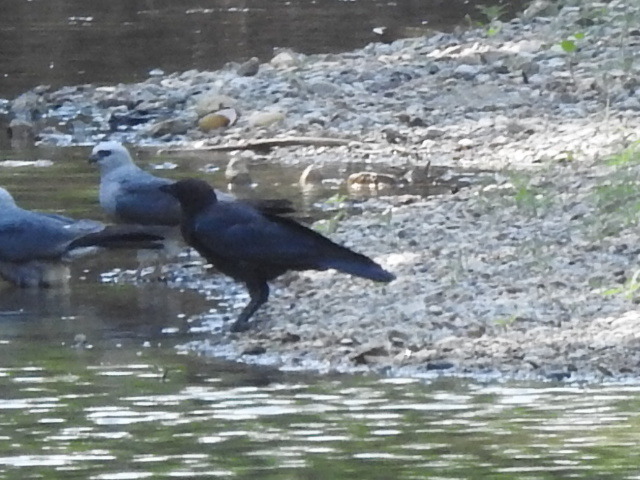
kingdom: Animalia
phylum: Chordata
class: Aves
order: Passeriformes
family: Corvidae
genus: Corvus
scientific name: Corvus brachyrhynchos
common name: American crow
